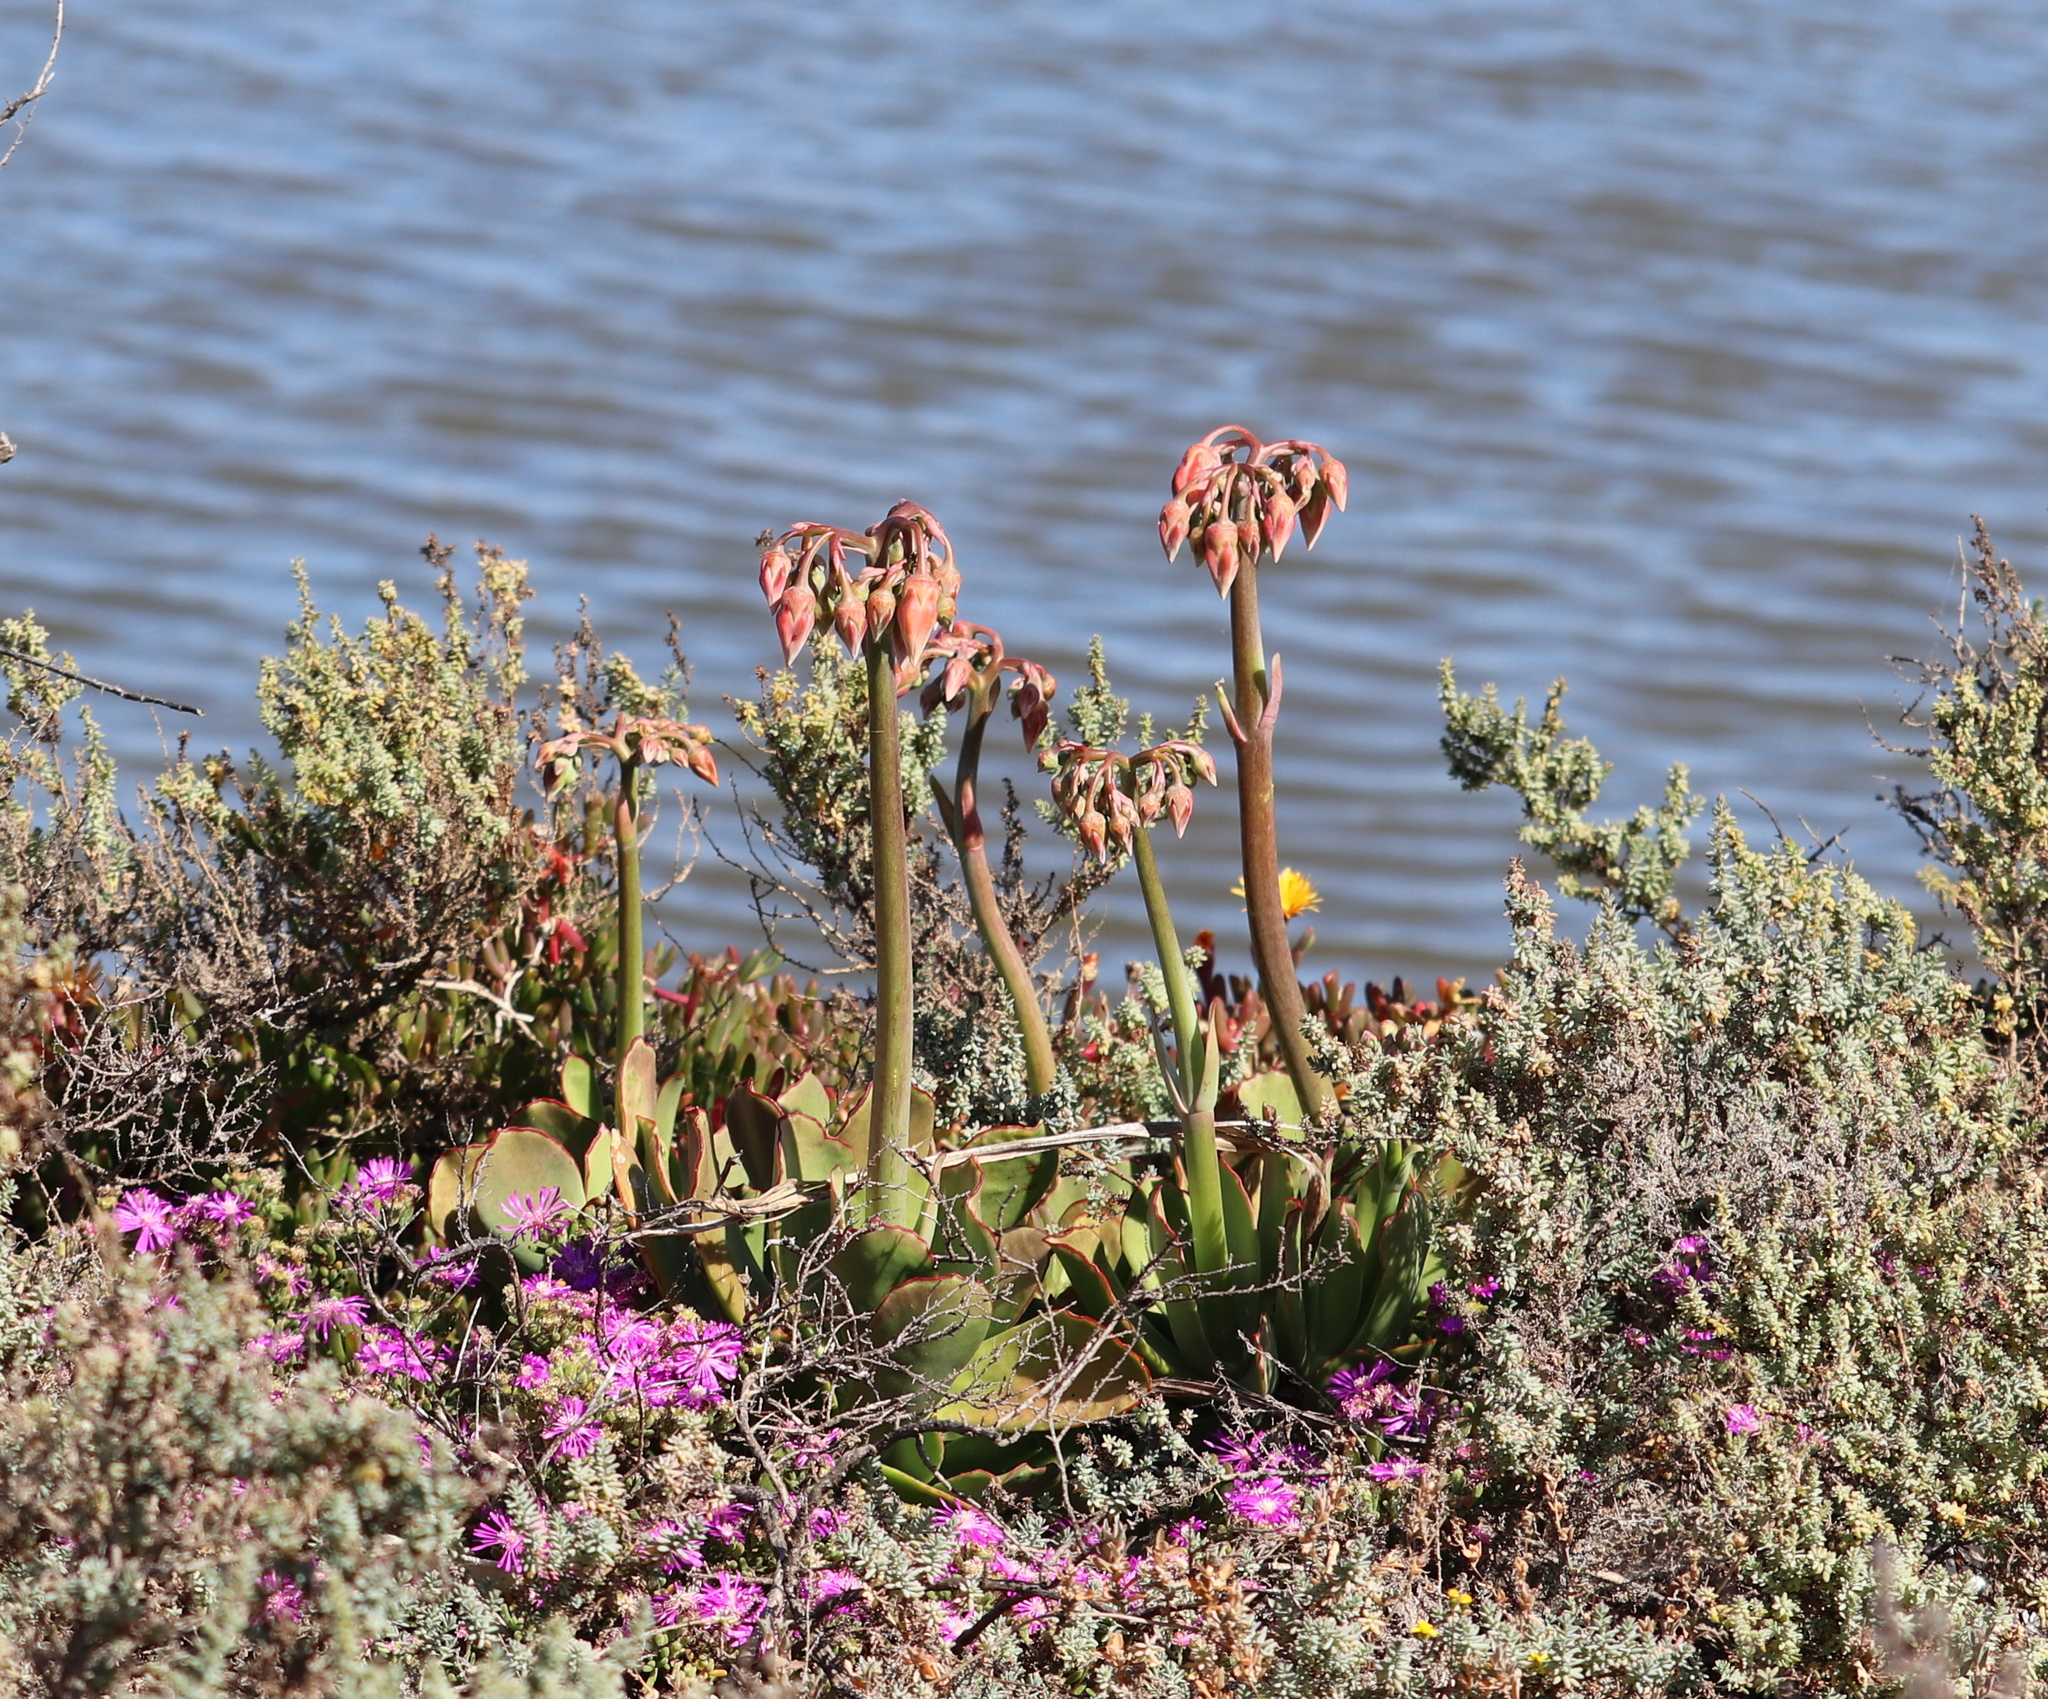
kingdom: Plantae
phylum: Tracheophyta
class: Magnoliopsida
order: Saxifragales
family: Crassulaceae
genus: Cotyledon
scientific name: Cotyledon orbiculata
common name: Pig's ear
